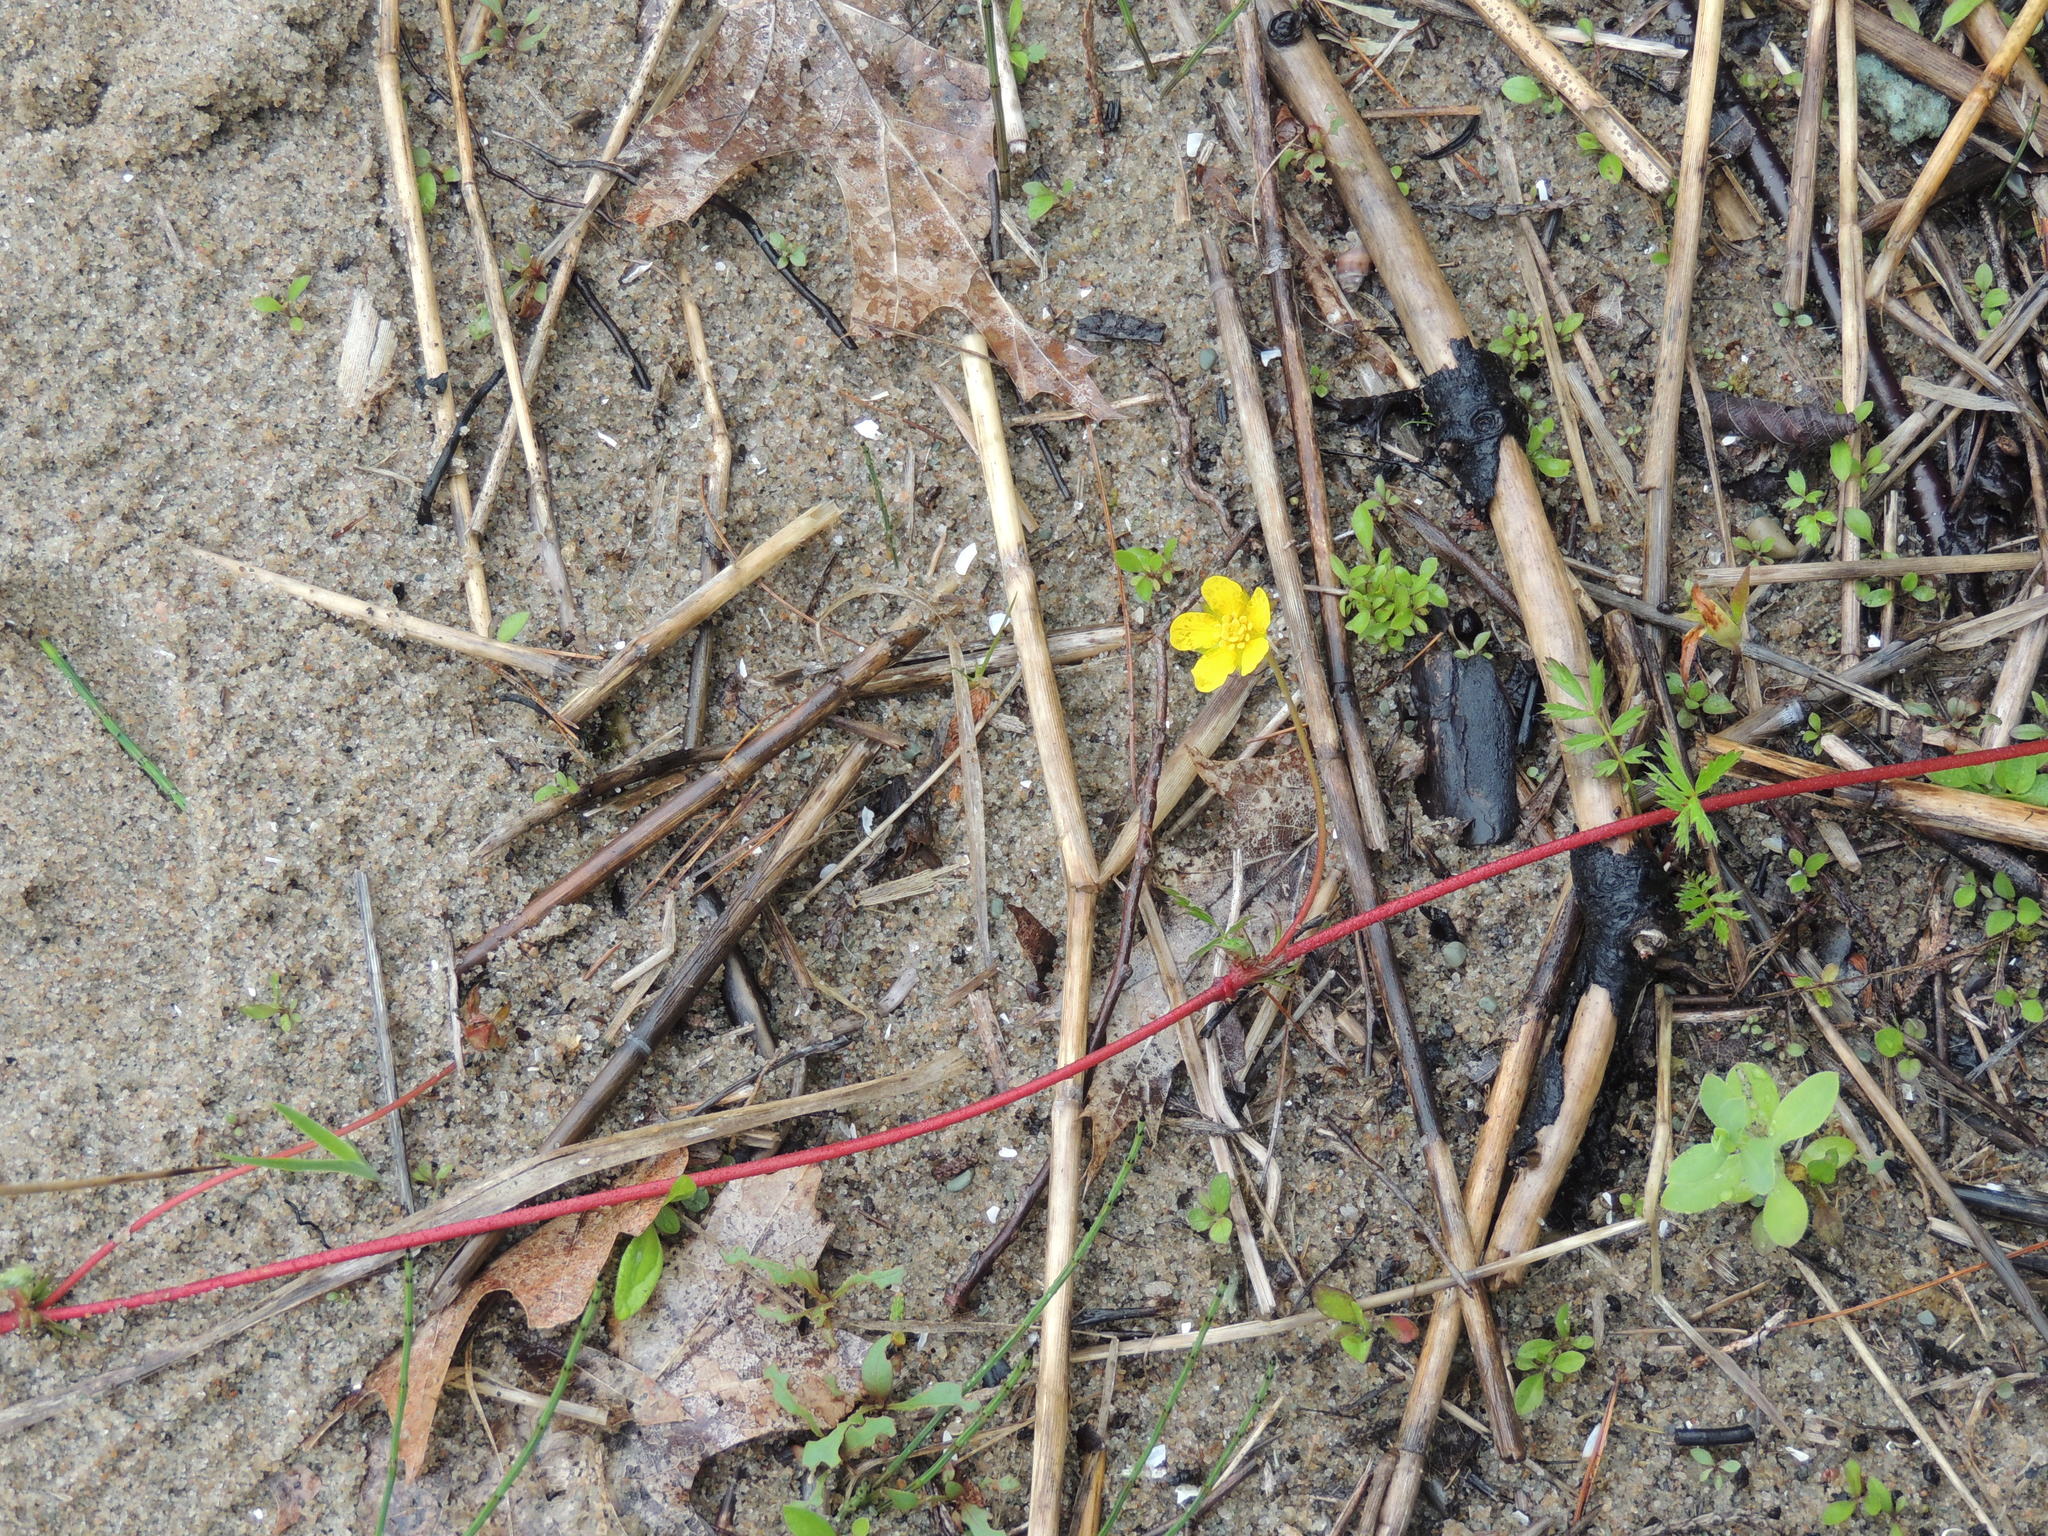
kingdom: Plantae
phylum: Tracheophyta
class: Magnoliopsida
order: Rosales
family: Rosaceae
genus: Argentina
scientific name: Argentina anserina
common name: Common silverweed
